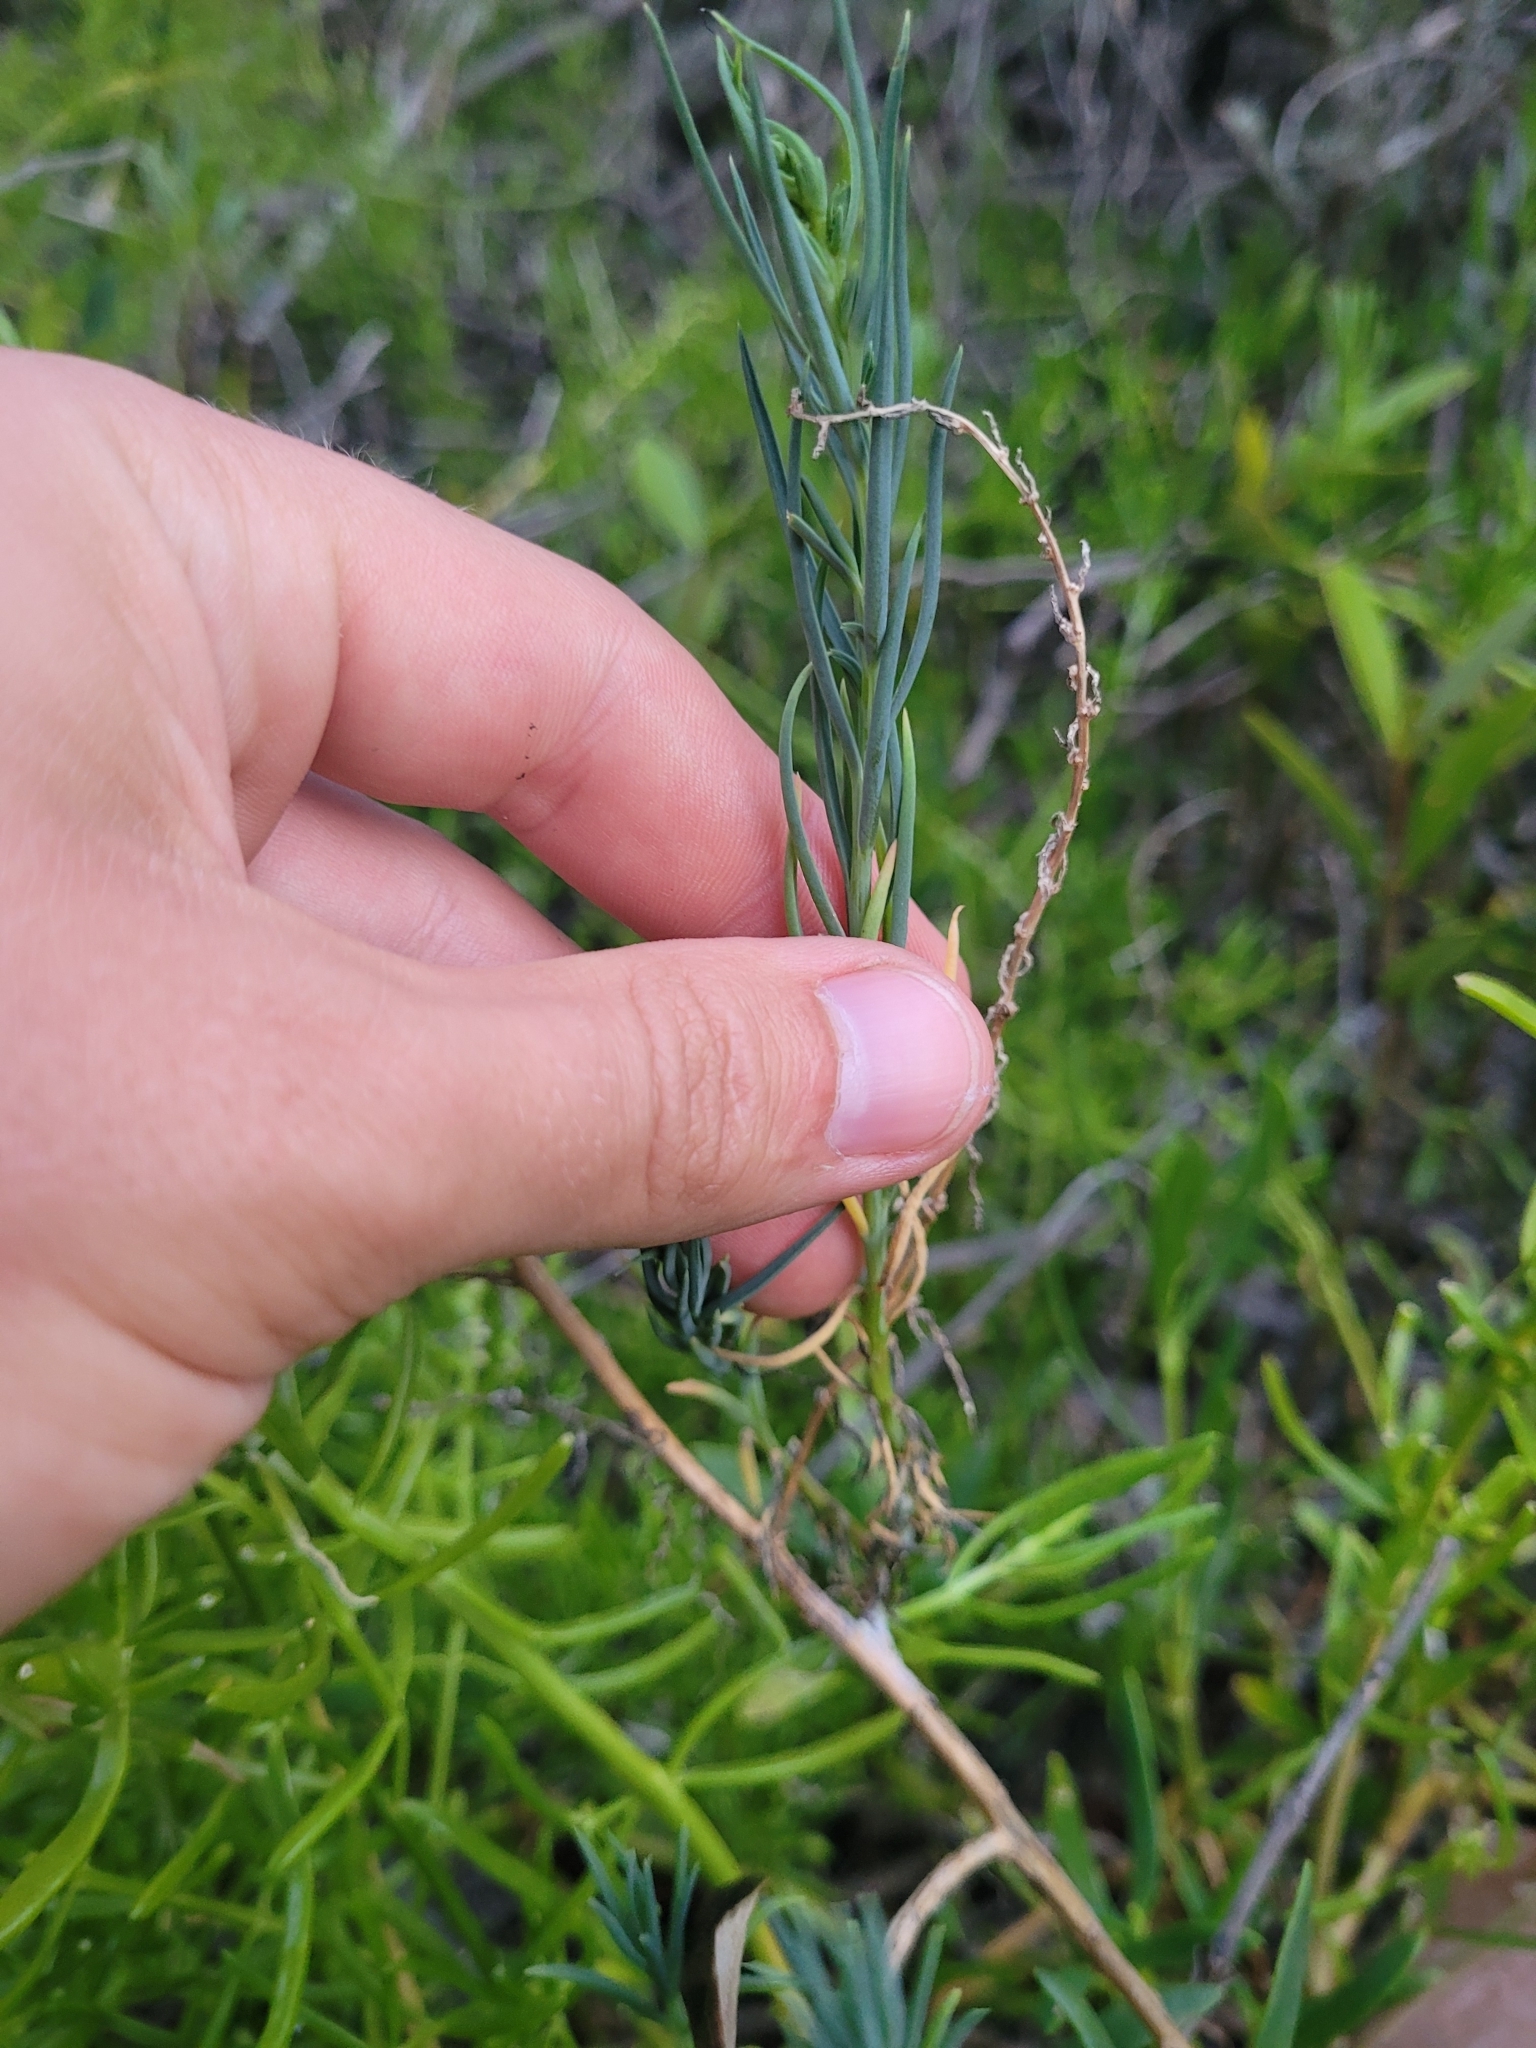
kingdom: Plantae
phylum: Tracheophyta
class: Magnoliopsida
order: Brassicales
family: Bataceae
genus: Batis
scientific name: Batis maritima
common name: Turtleweed
